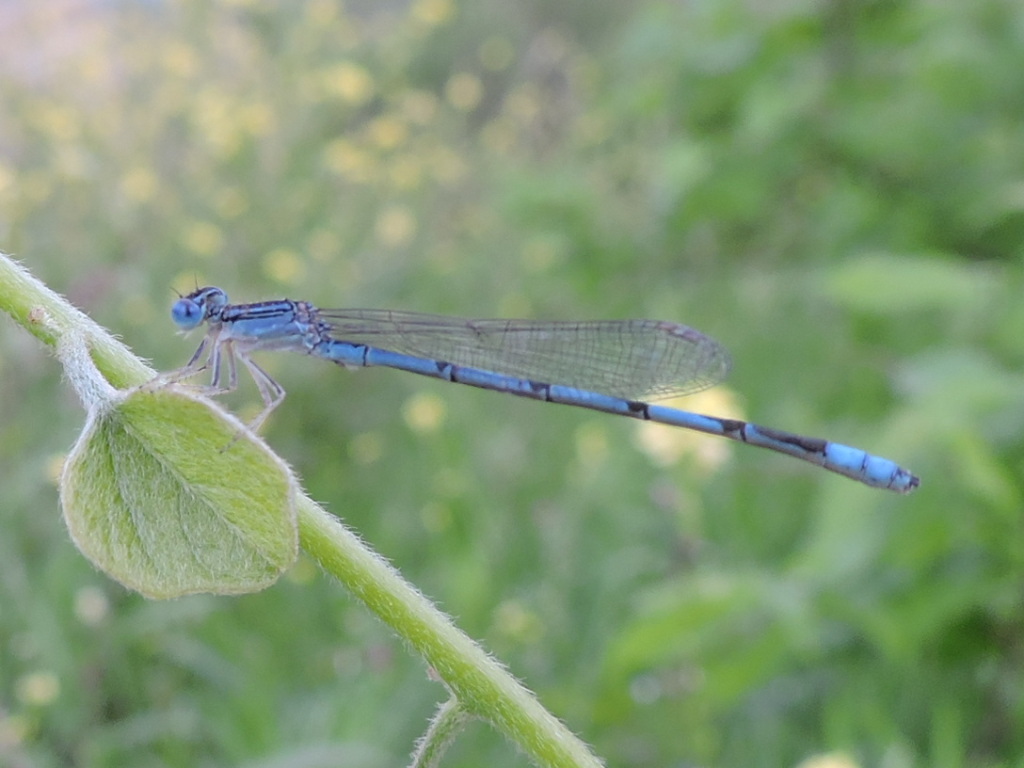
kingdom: Animalia
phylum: Arthropoda
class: Insecta
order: Odonata
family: Coenagrionidae
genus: Enallagma
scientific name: Enallagma basidens
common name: Double-striped bluet
